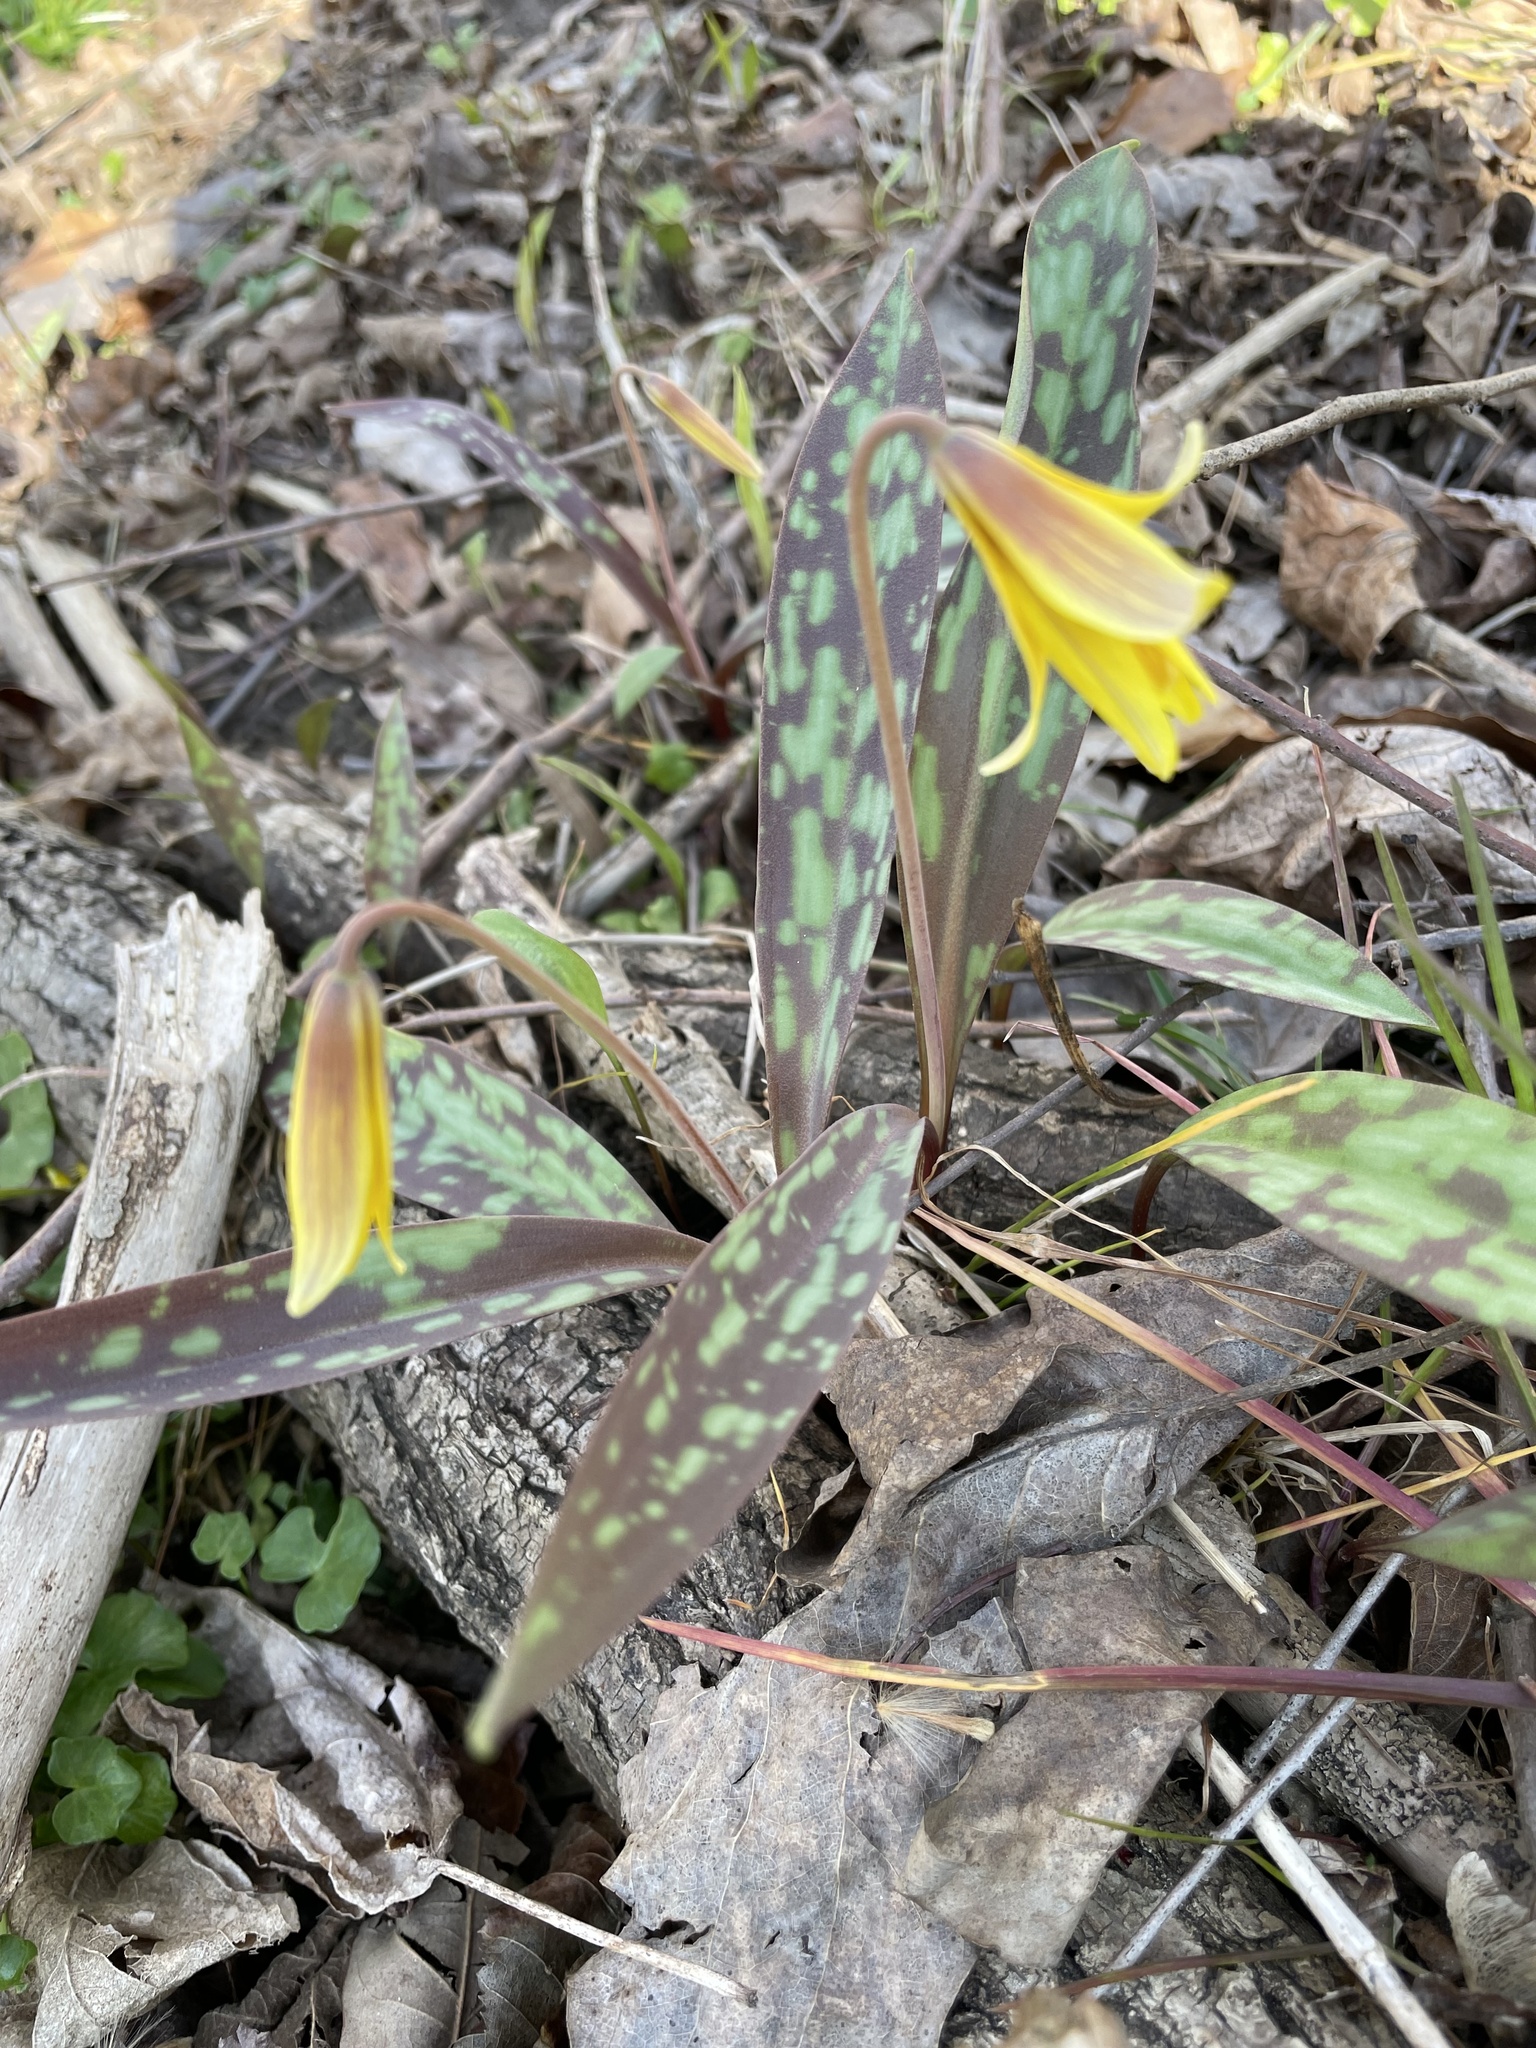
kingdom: Plantae
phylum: Tracheophyta
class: Liliopsida
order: Liliales
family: Liliaceae
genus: Erythronium
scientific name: Erythronium americanum
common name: Yellow adder's-tongue
